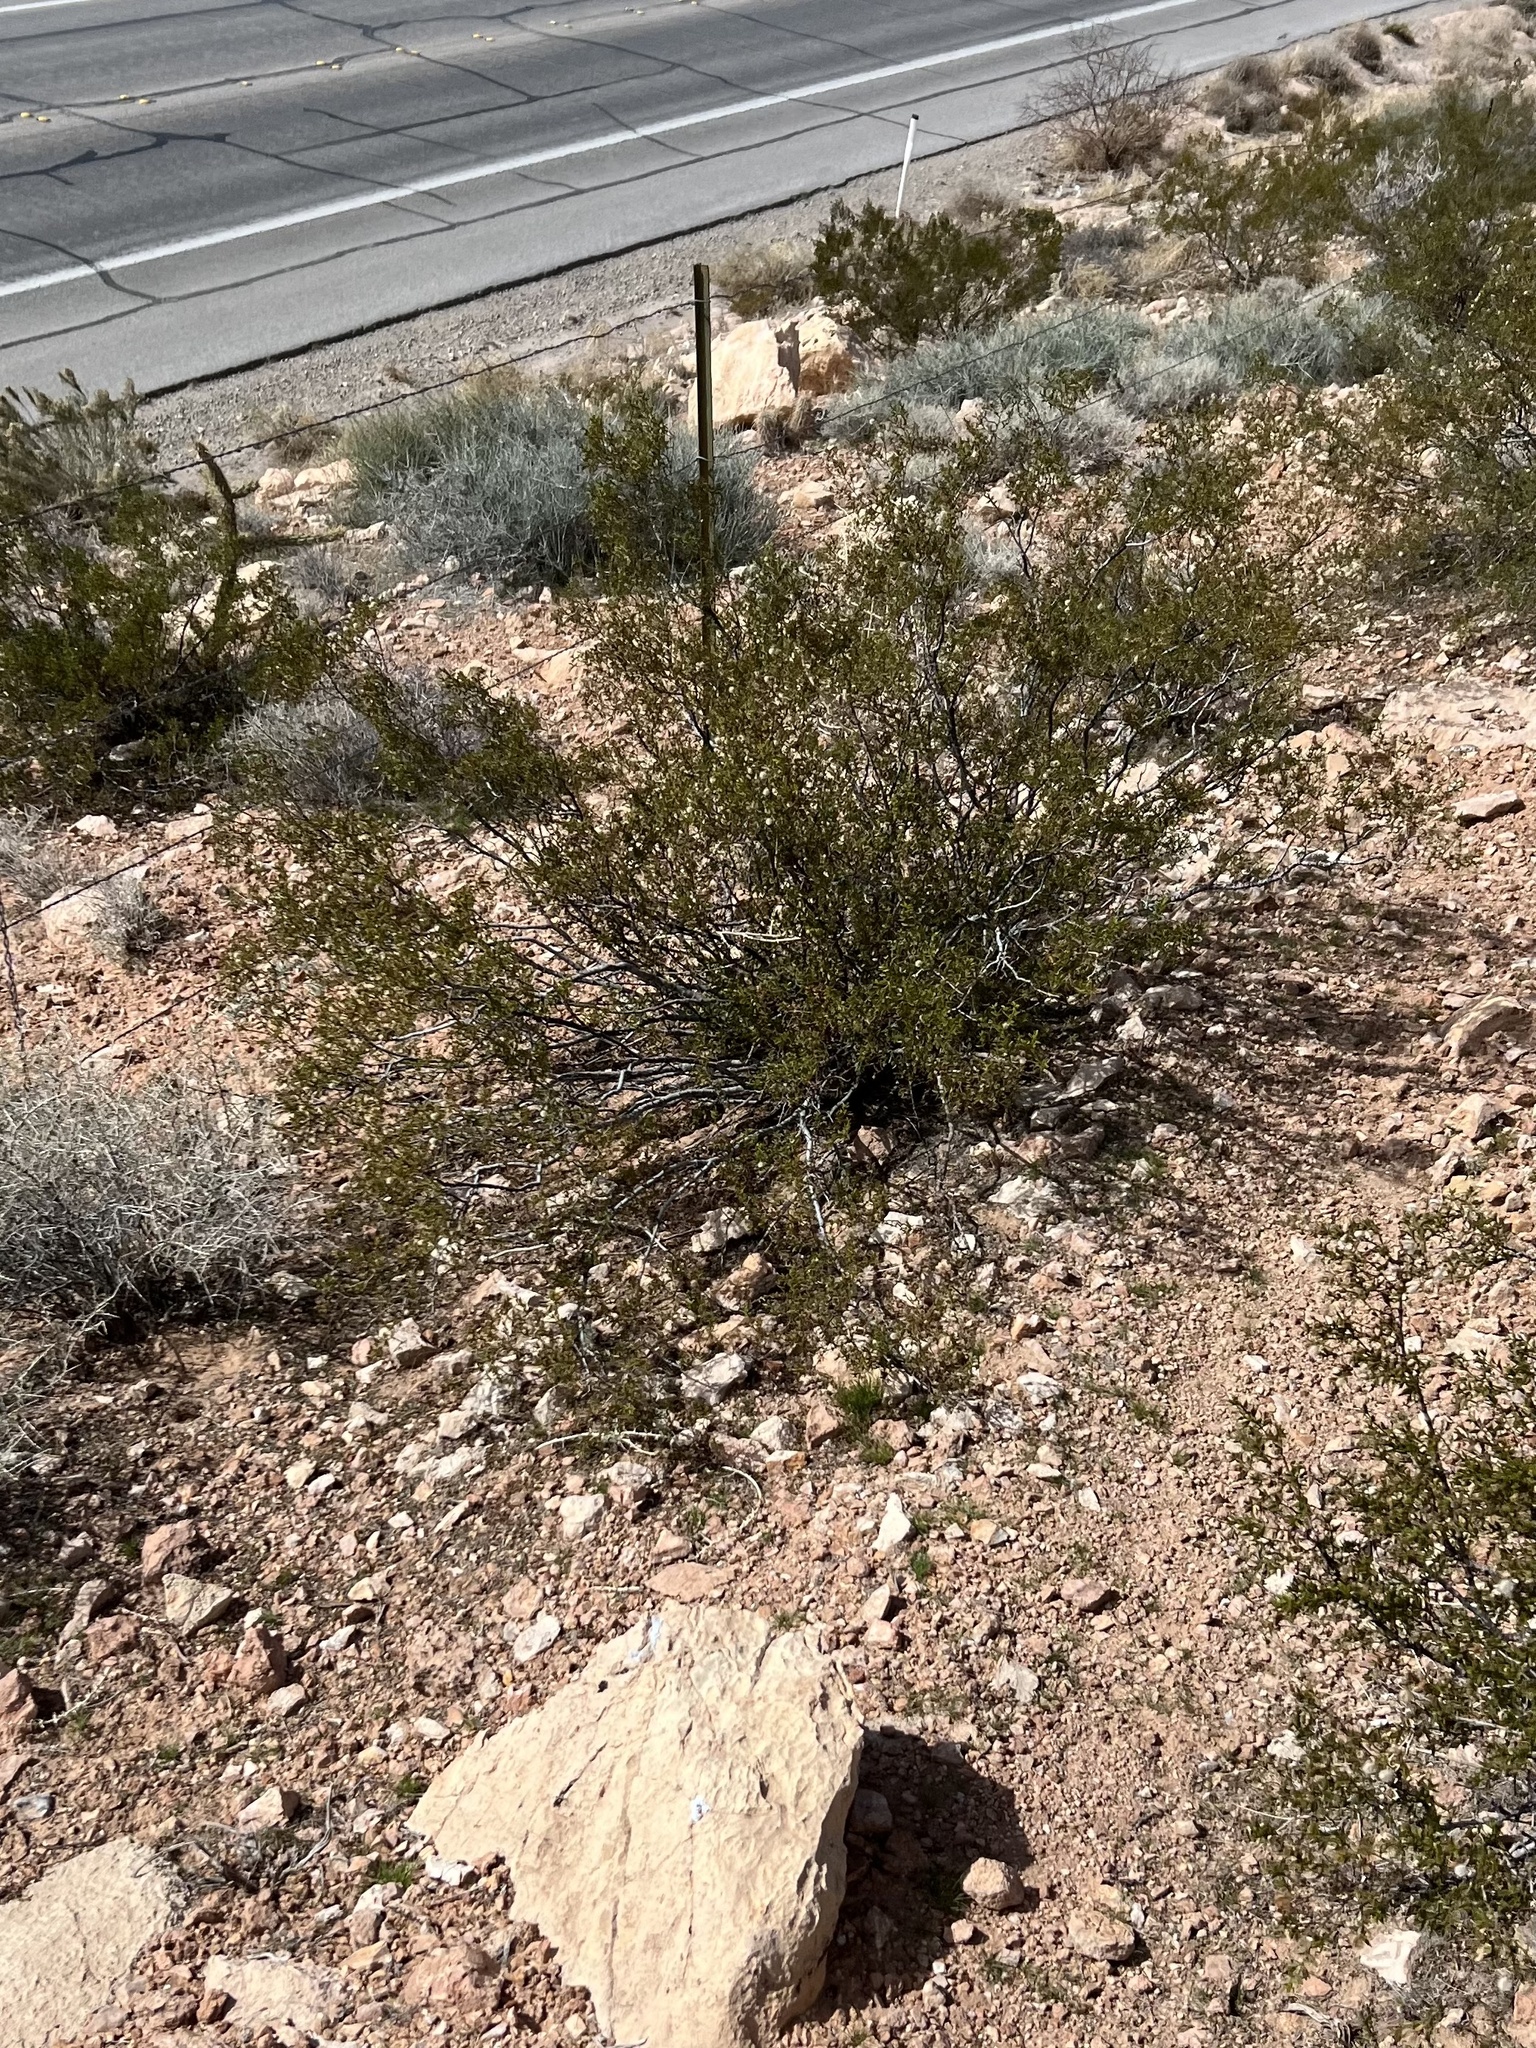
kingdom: Plantae
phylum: Tracheophyta
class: Magnoliopsida
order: Zygophyllales
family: Zygophyllaceae
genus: Larrea
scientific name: Larrea tridentata
